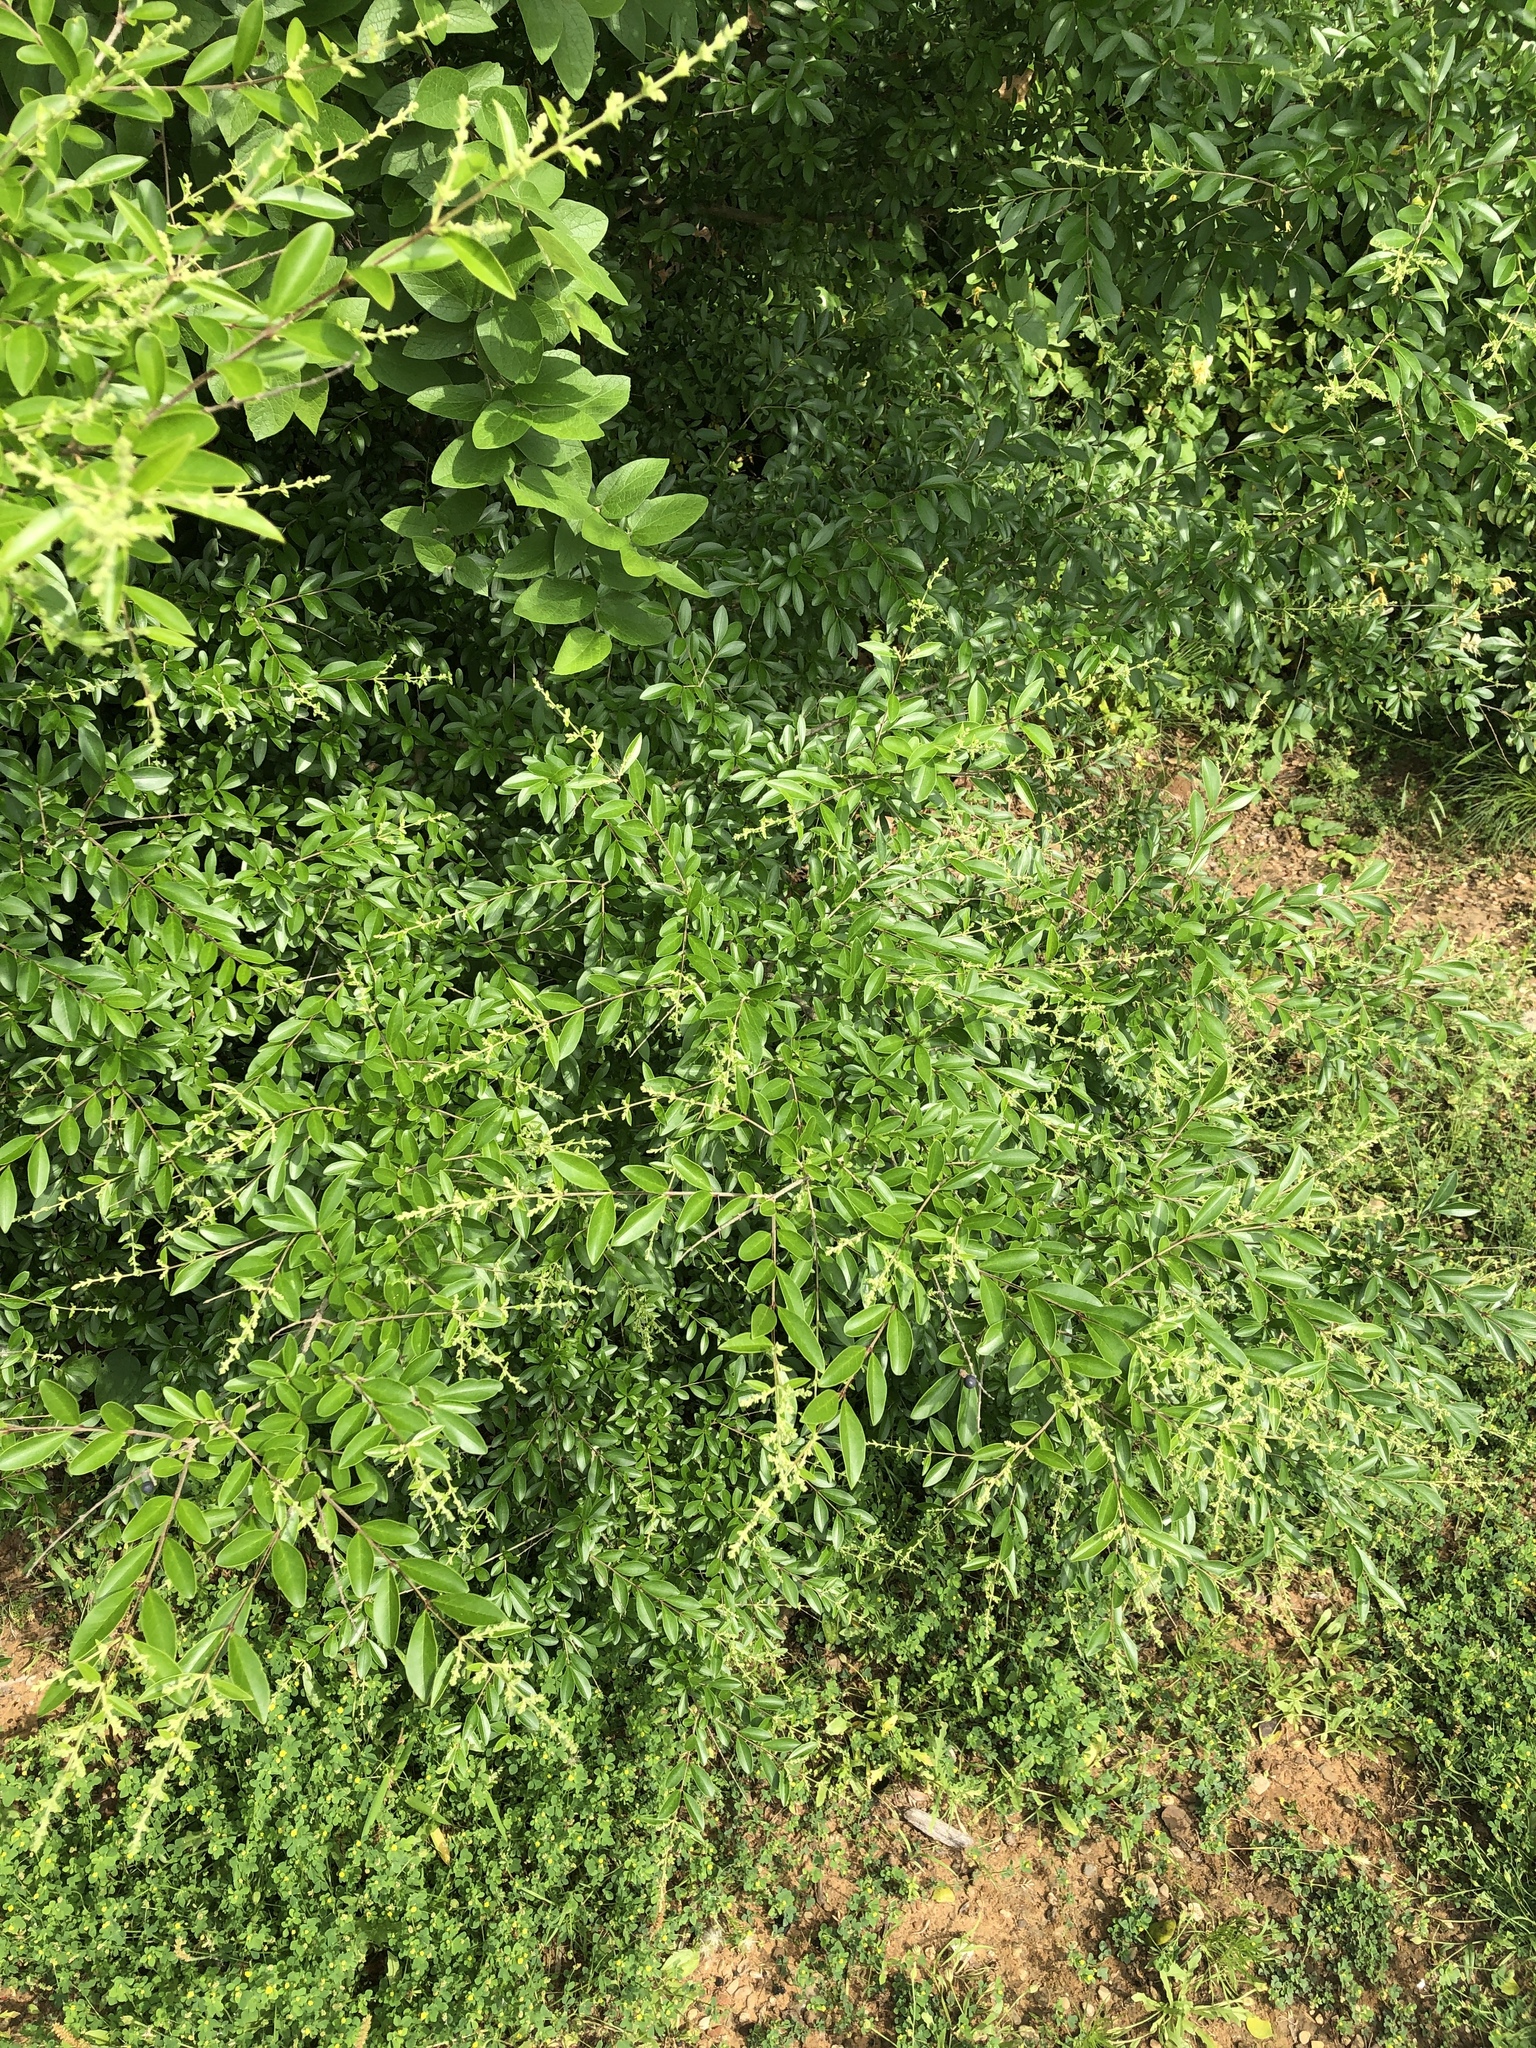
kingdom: Plantae
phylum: Tracheophyta
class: Magnoliopsida
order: Lamiales
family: Oleaceae
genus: Ligustrum
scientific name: Ligustrum quihoui
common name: Waxyleaf privet
